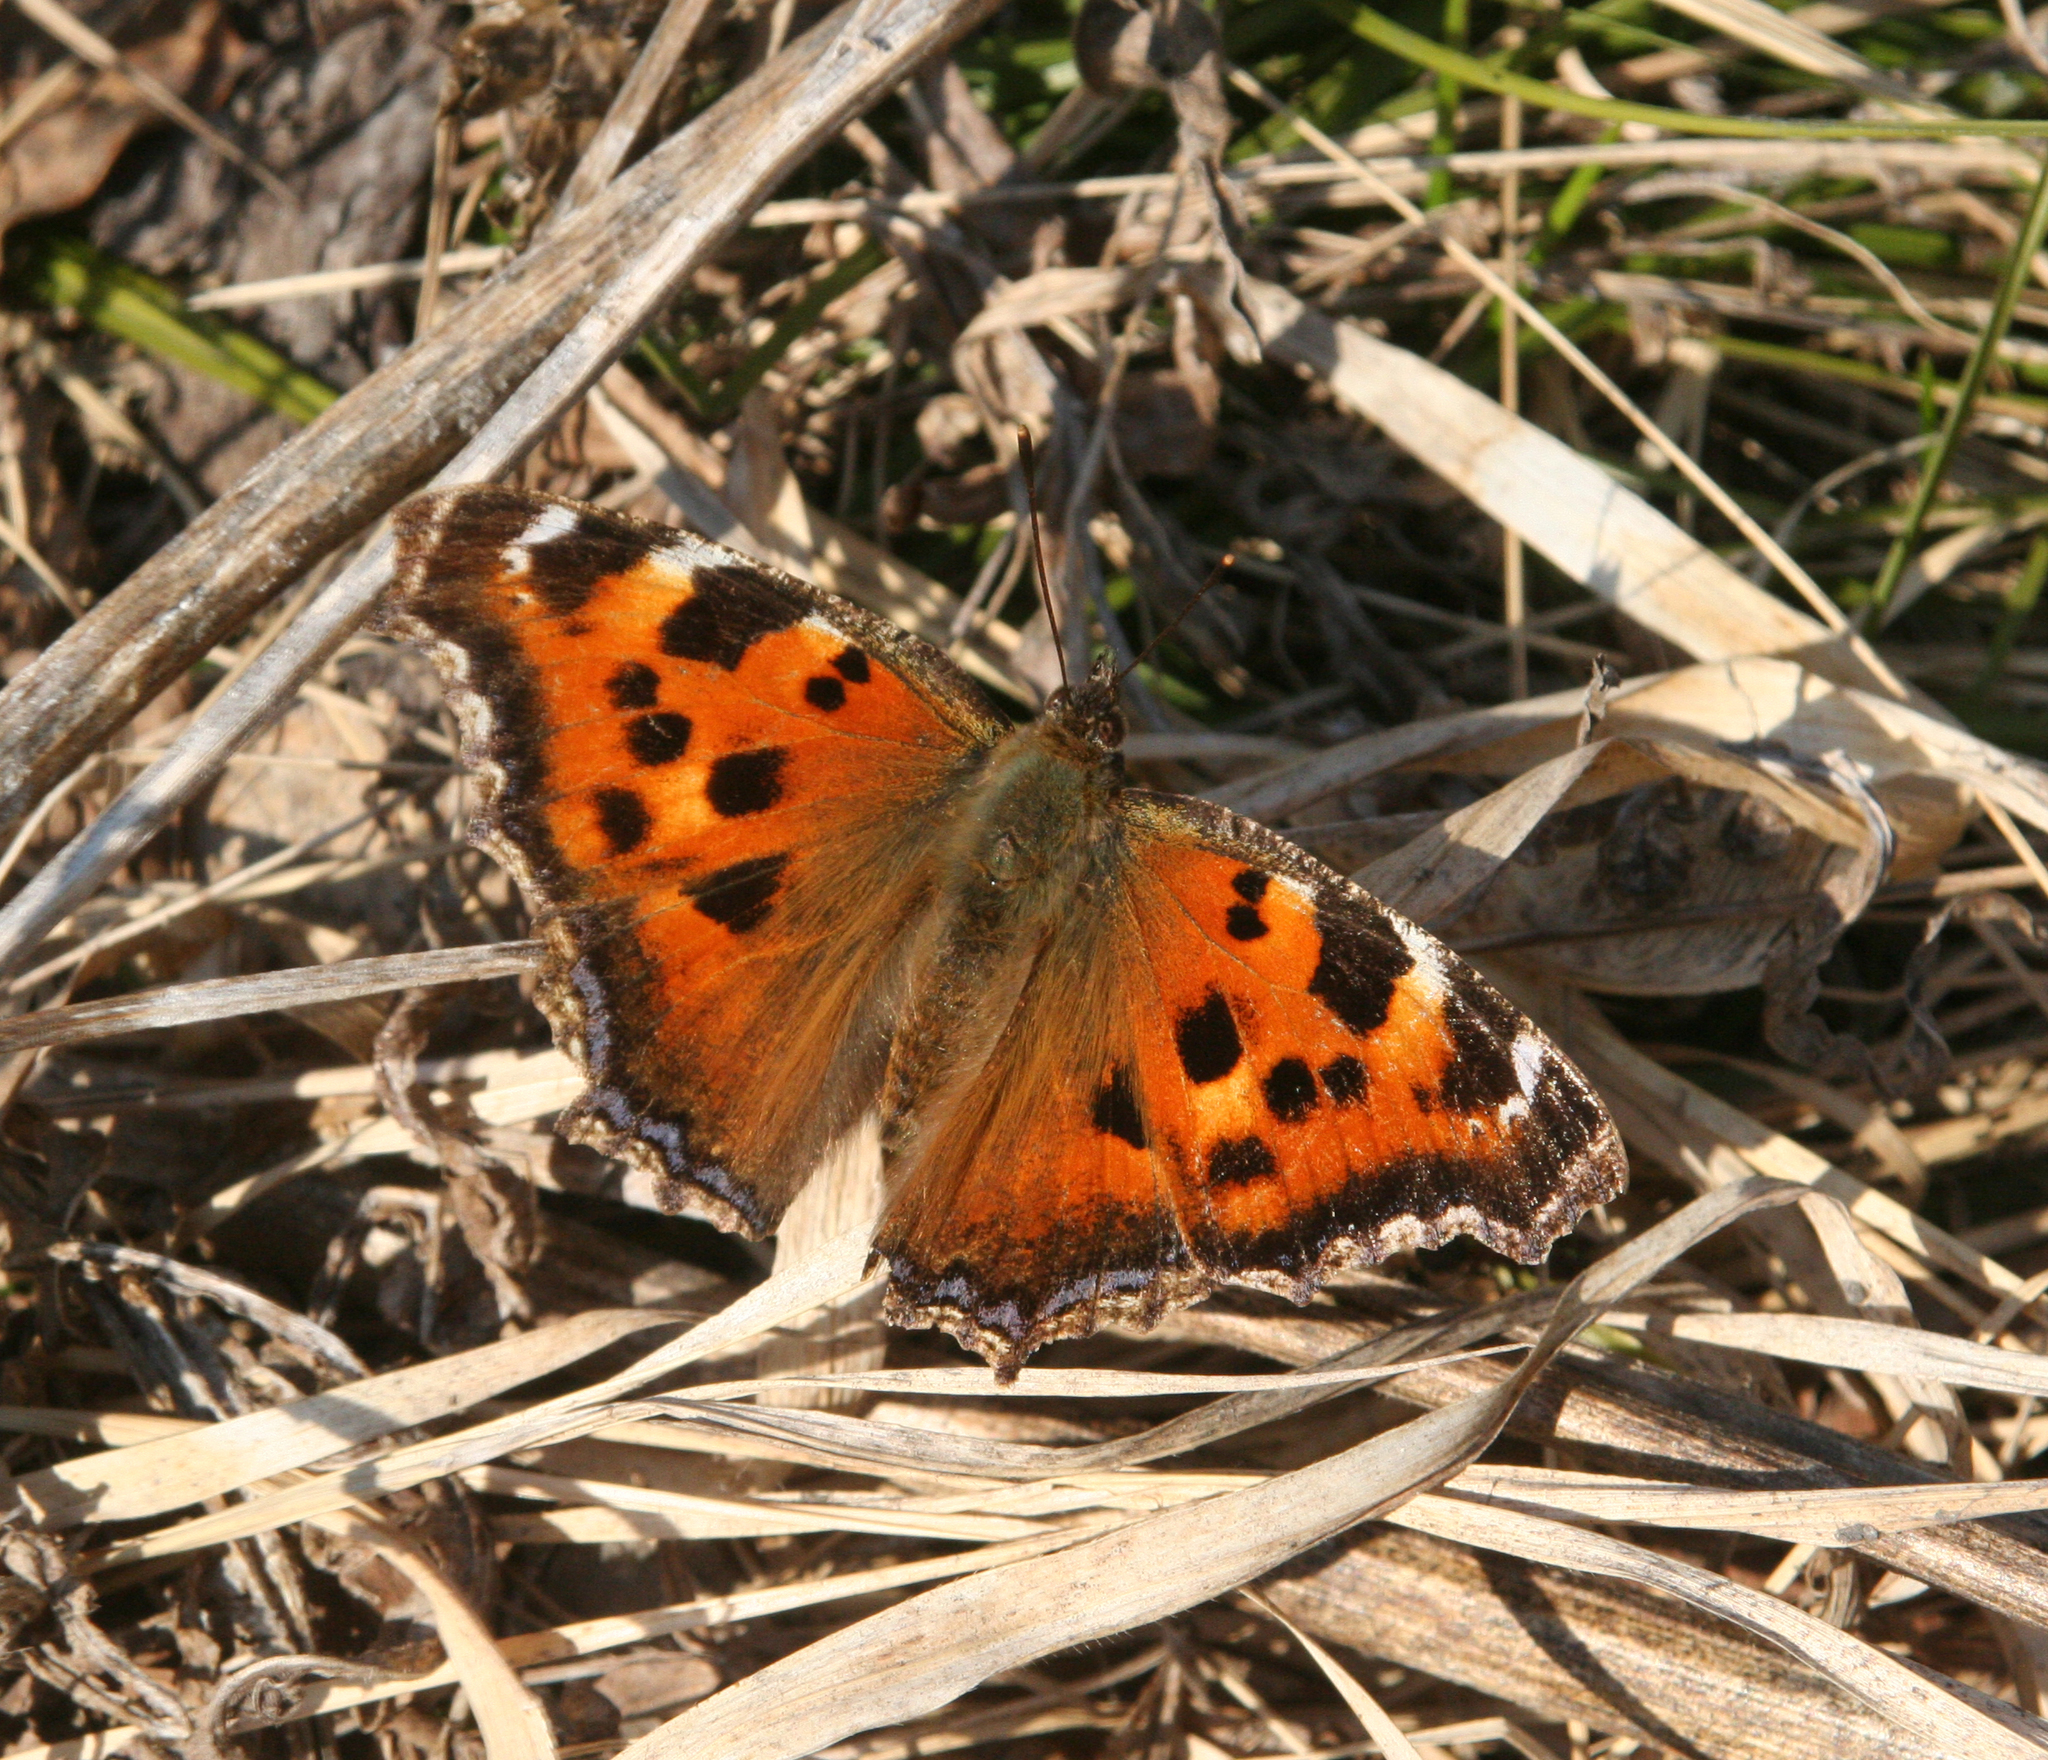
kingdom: Animalia
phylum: Arthropoda
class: Insecta
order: Lepidoptera
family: Nymphalidae
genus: Nymphalis
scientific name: Nymphalis xanthomelas
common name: Scarce tortoiseshell
